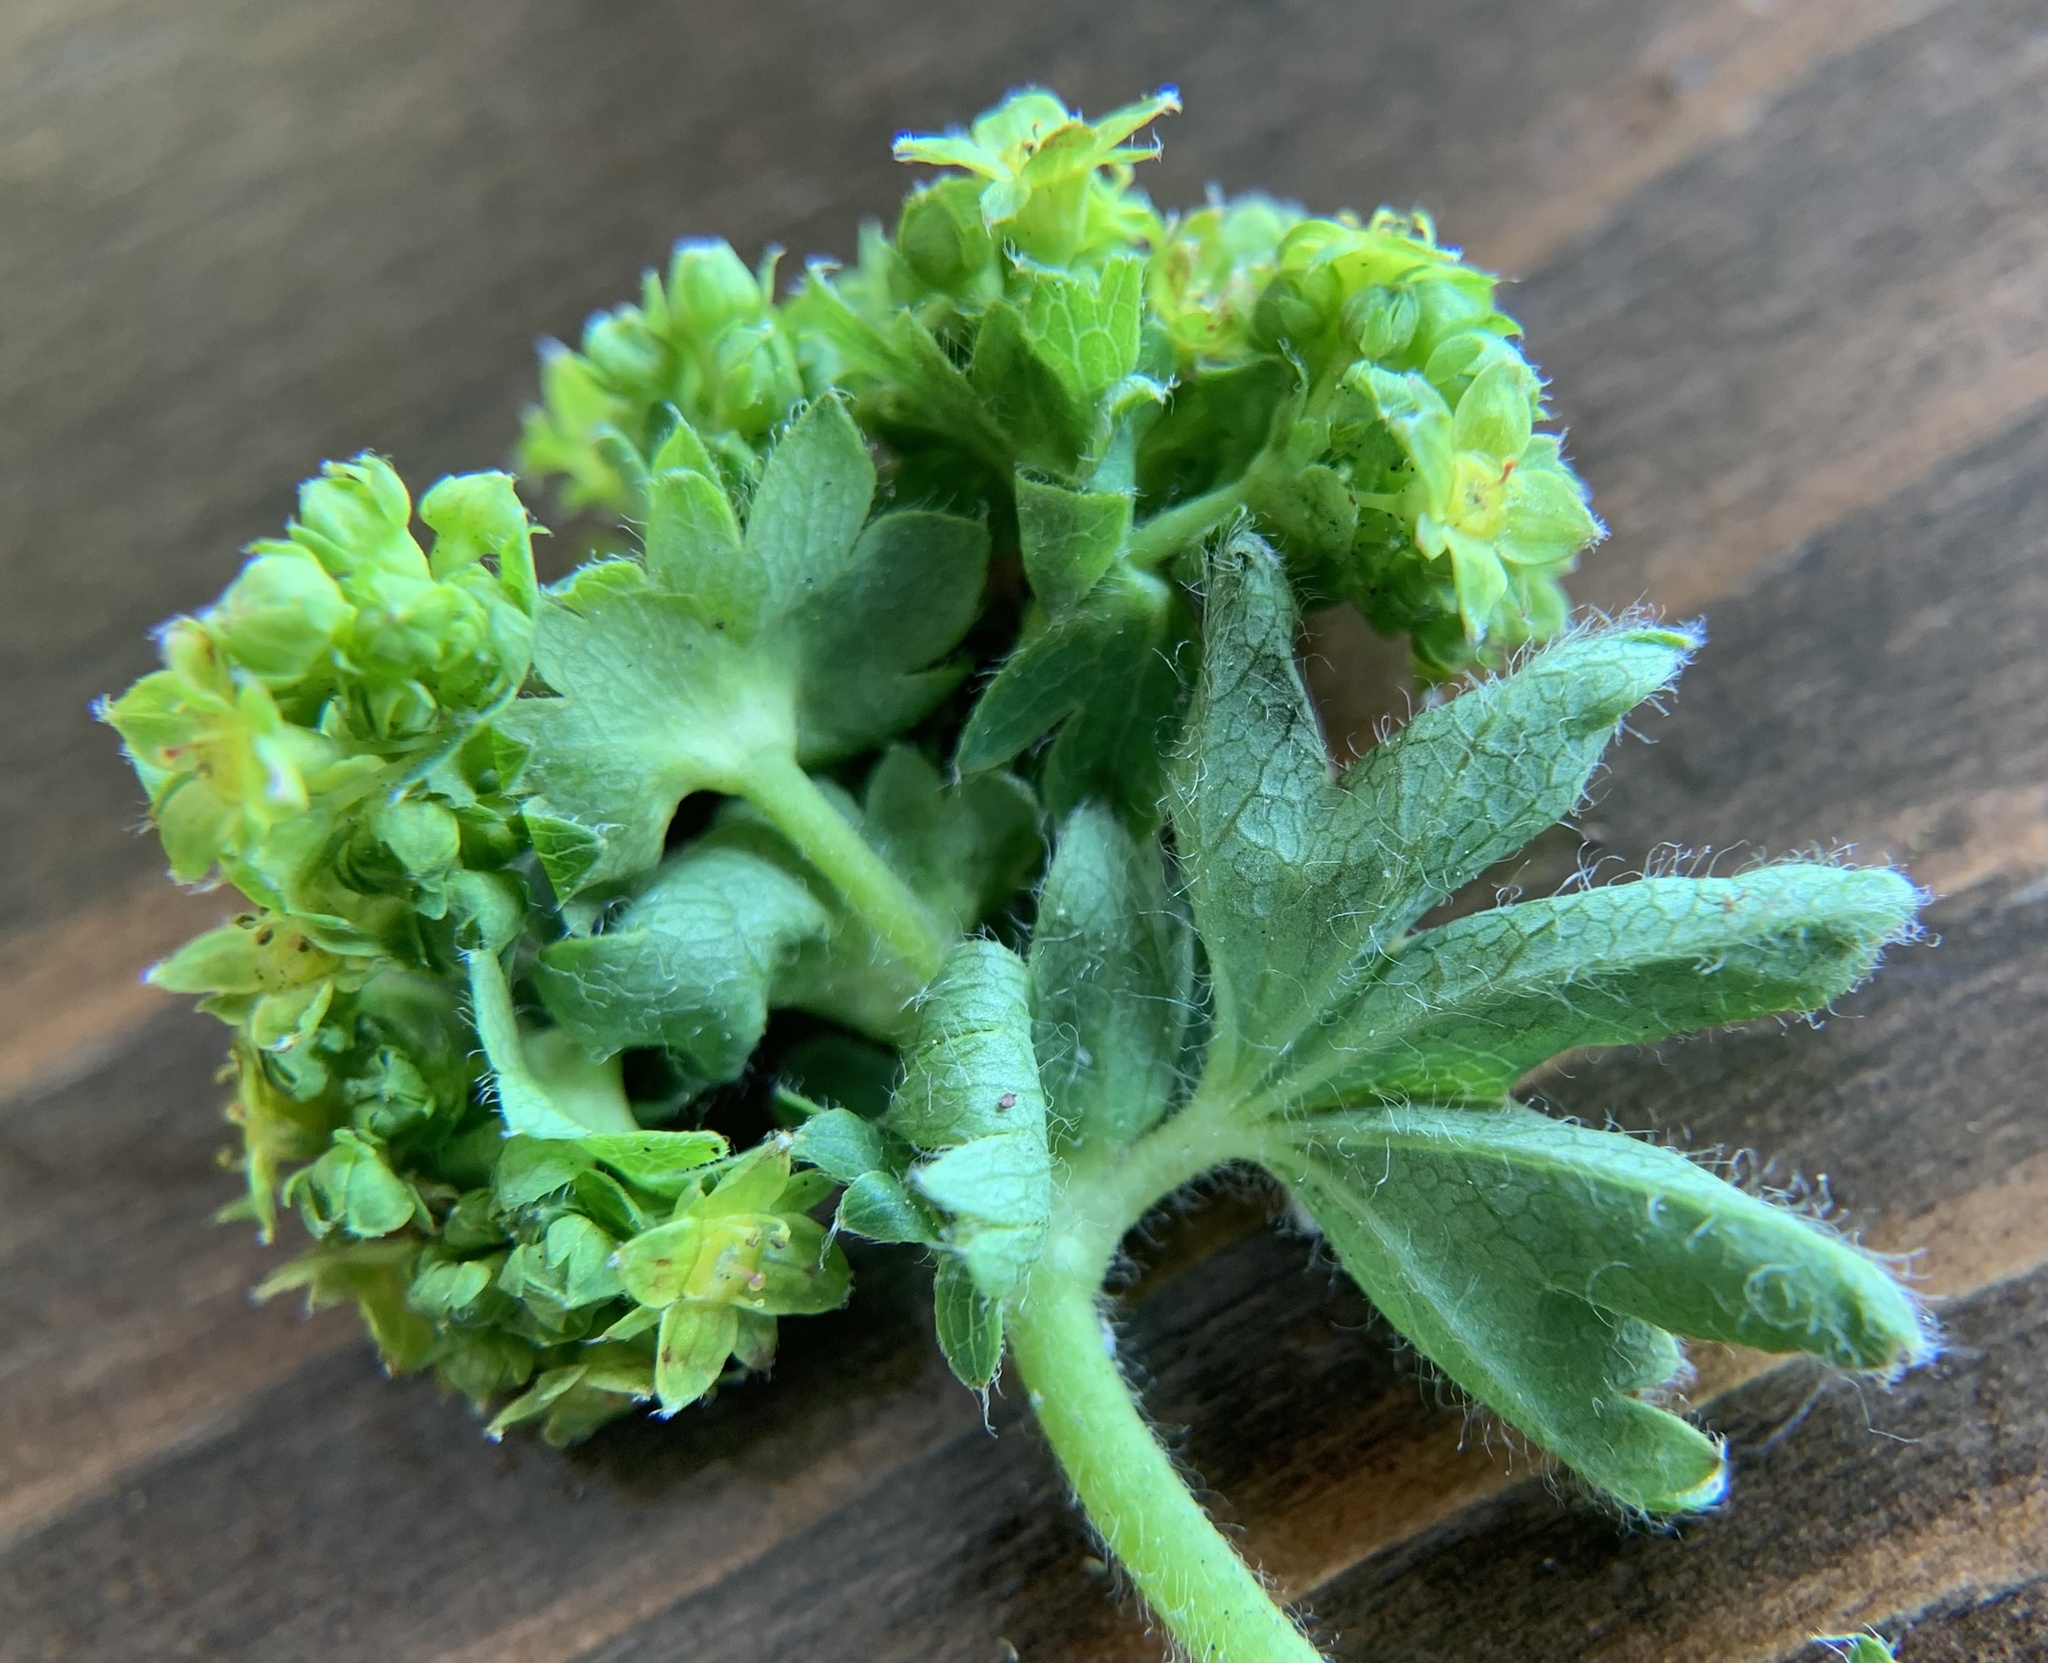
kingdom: Plantae
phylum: Tracheophyta
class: Magnoliopsida
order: Rosales
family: Rosaceae
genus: Alchemilla
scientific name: Alchemilla monticola
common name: Hairy lady's mantle
